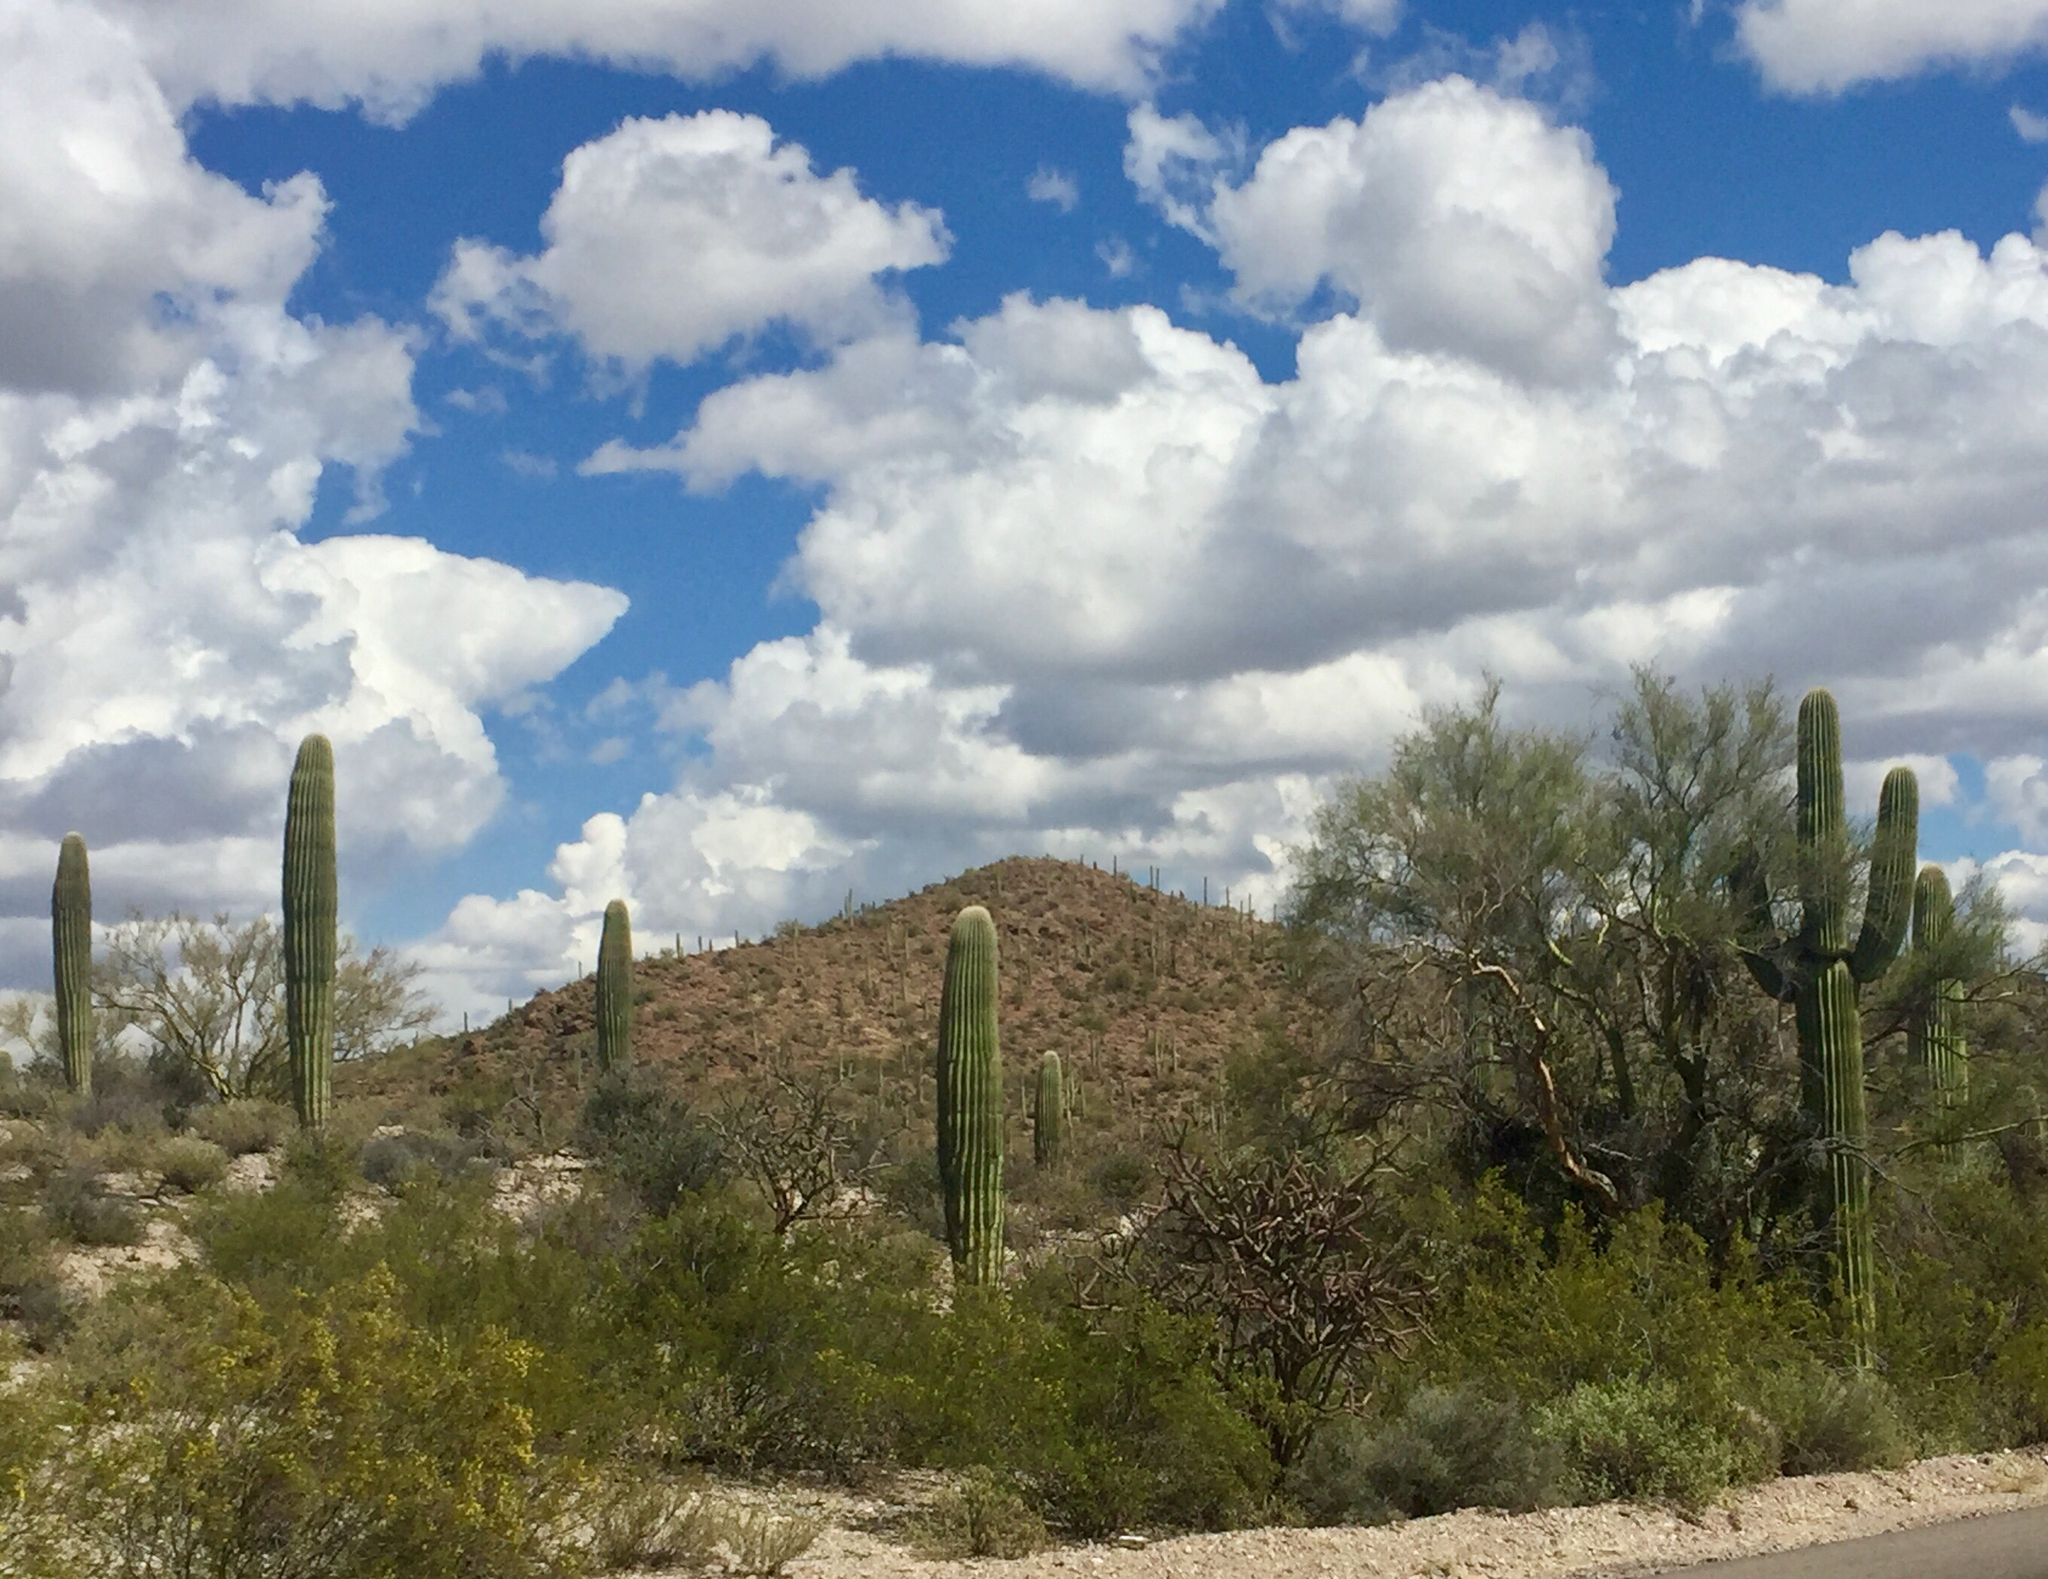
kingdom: Plantae
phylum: Tracheophyta
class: Magnoliopsida
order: Caryophyllales
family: Cactaceae
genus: Carnegiea
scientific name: Carnegiea gigantea
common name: Saguaro
